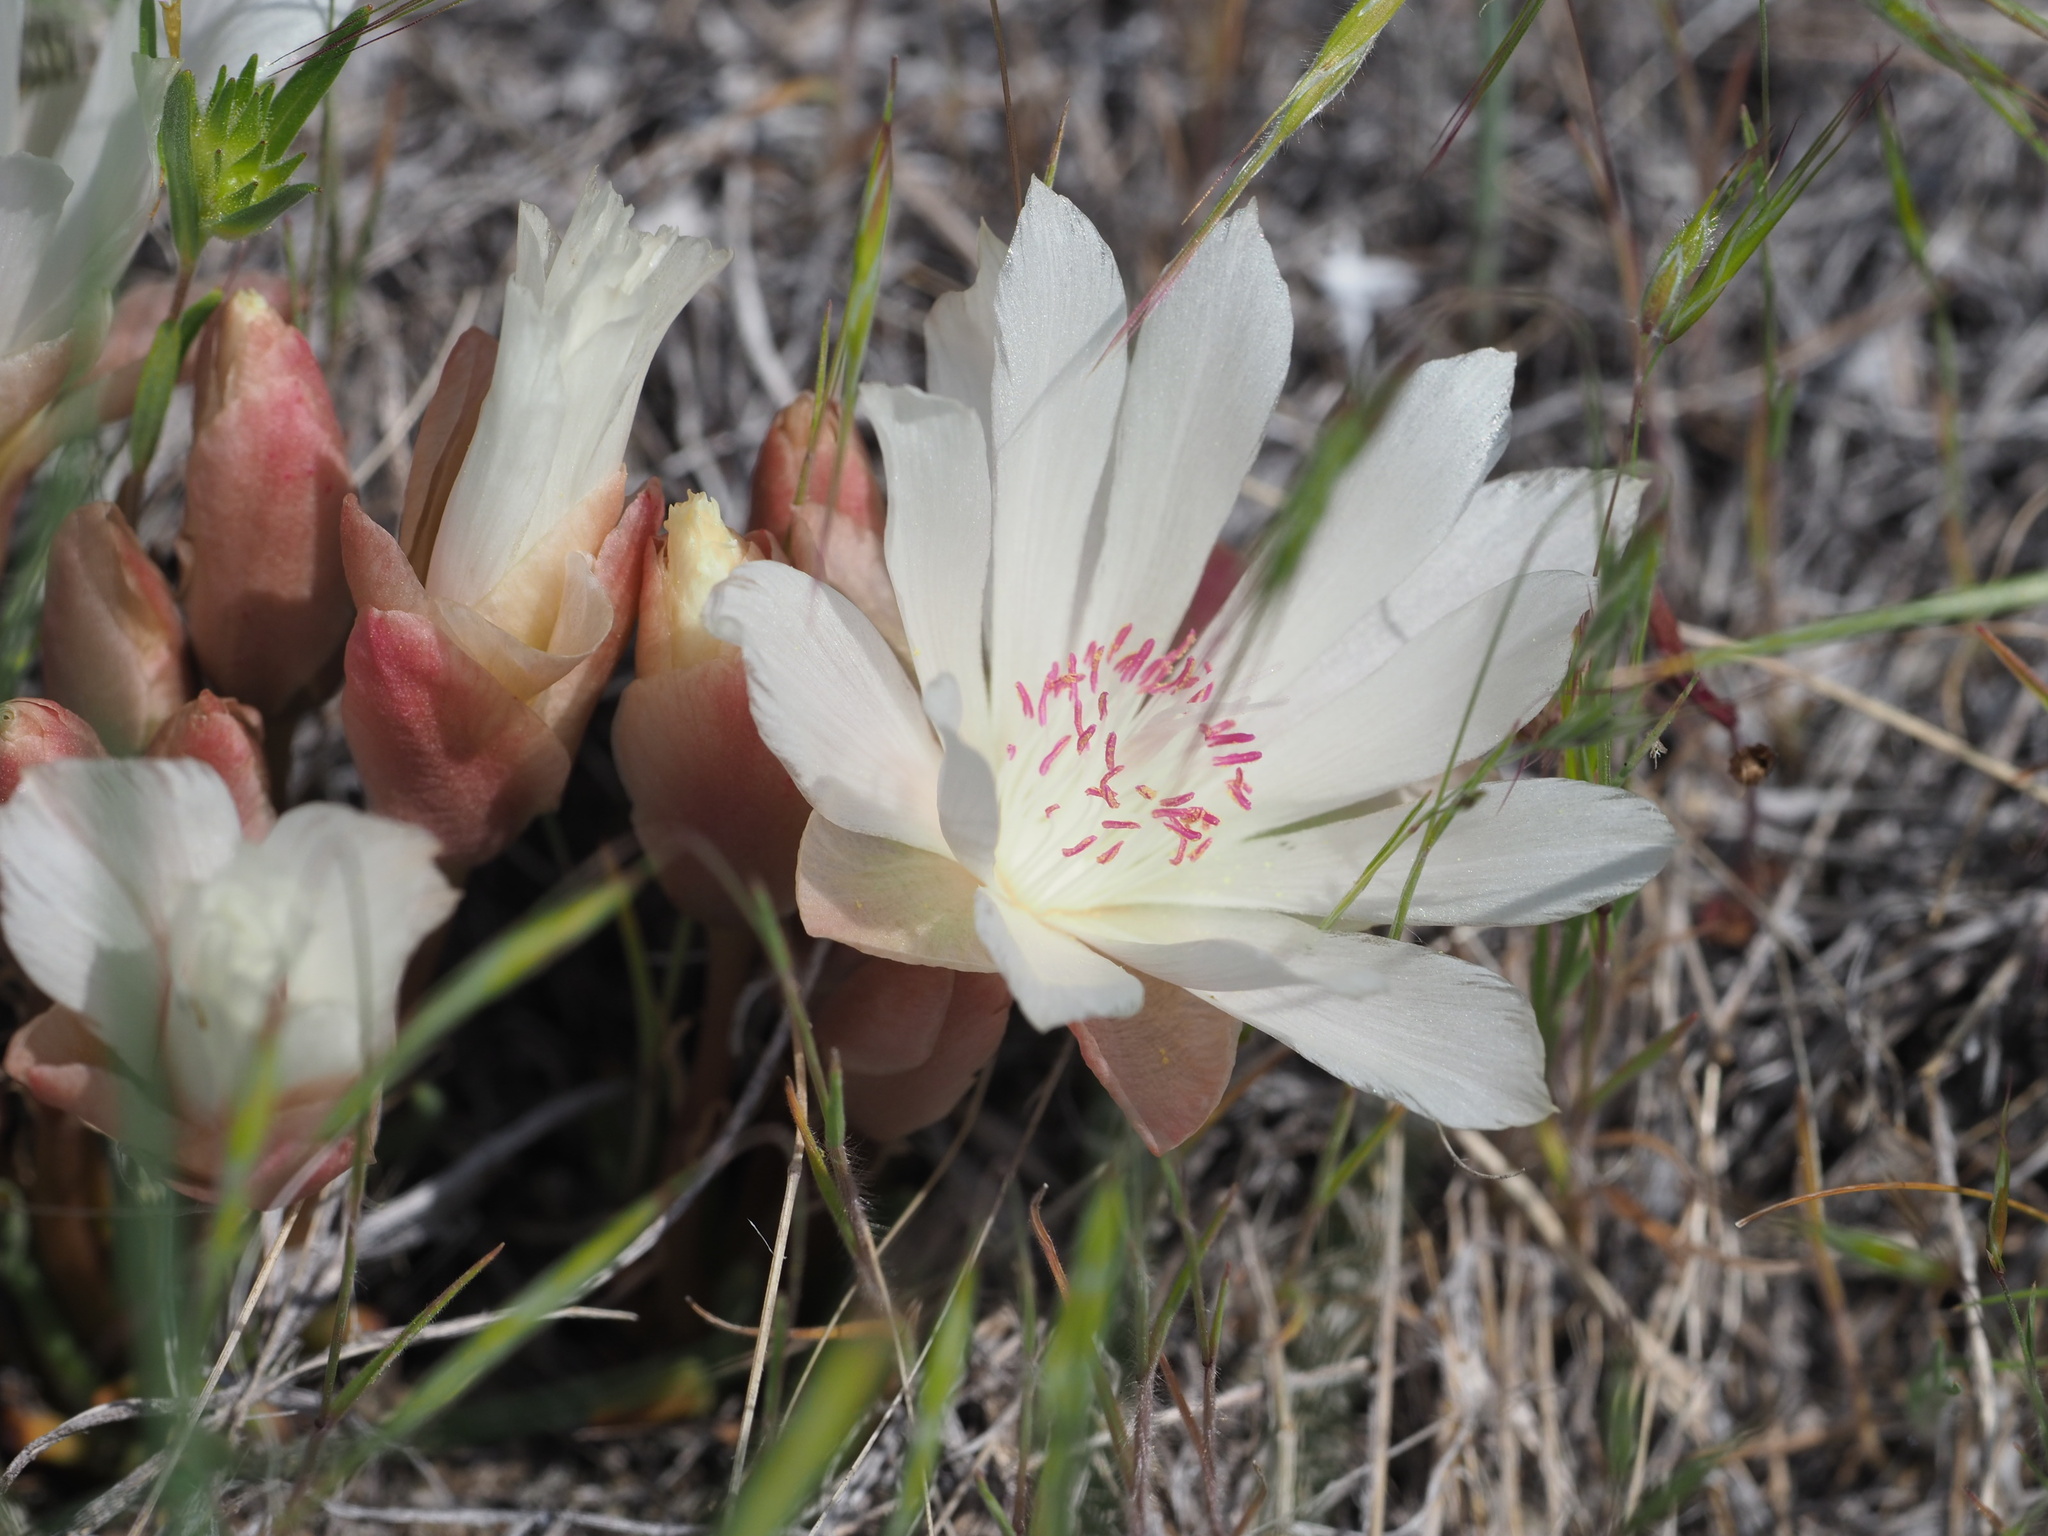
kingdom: Plantae
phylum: Tracheophyta
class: Magnoliopsida
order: Caryophyllales
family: Montiaceae
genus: Lewisia
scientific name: Lewisia rediviva
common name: Bitter-root
